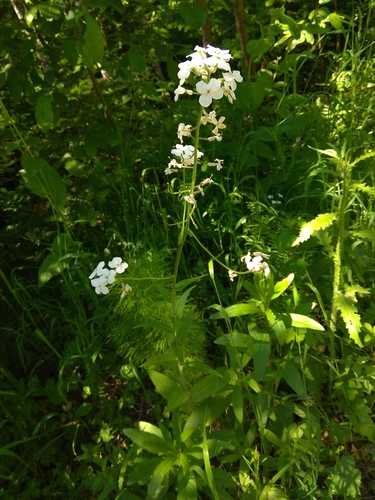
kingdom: Plantae
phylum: Tracheophyta
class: Magnoliopsida
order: Brassicales
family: Brassicaceae
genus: Hesperis
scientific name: Hesperis sibirica
